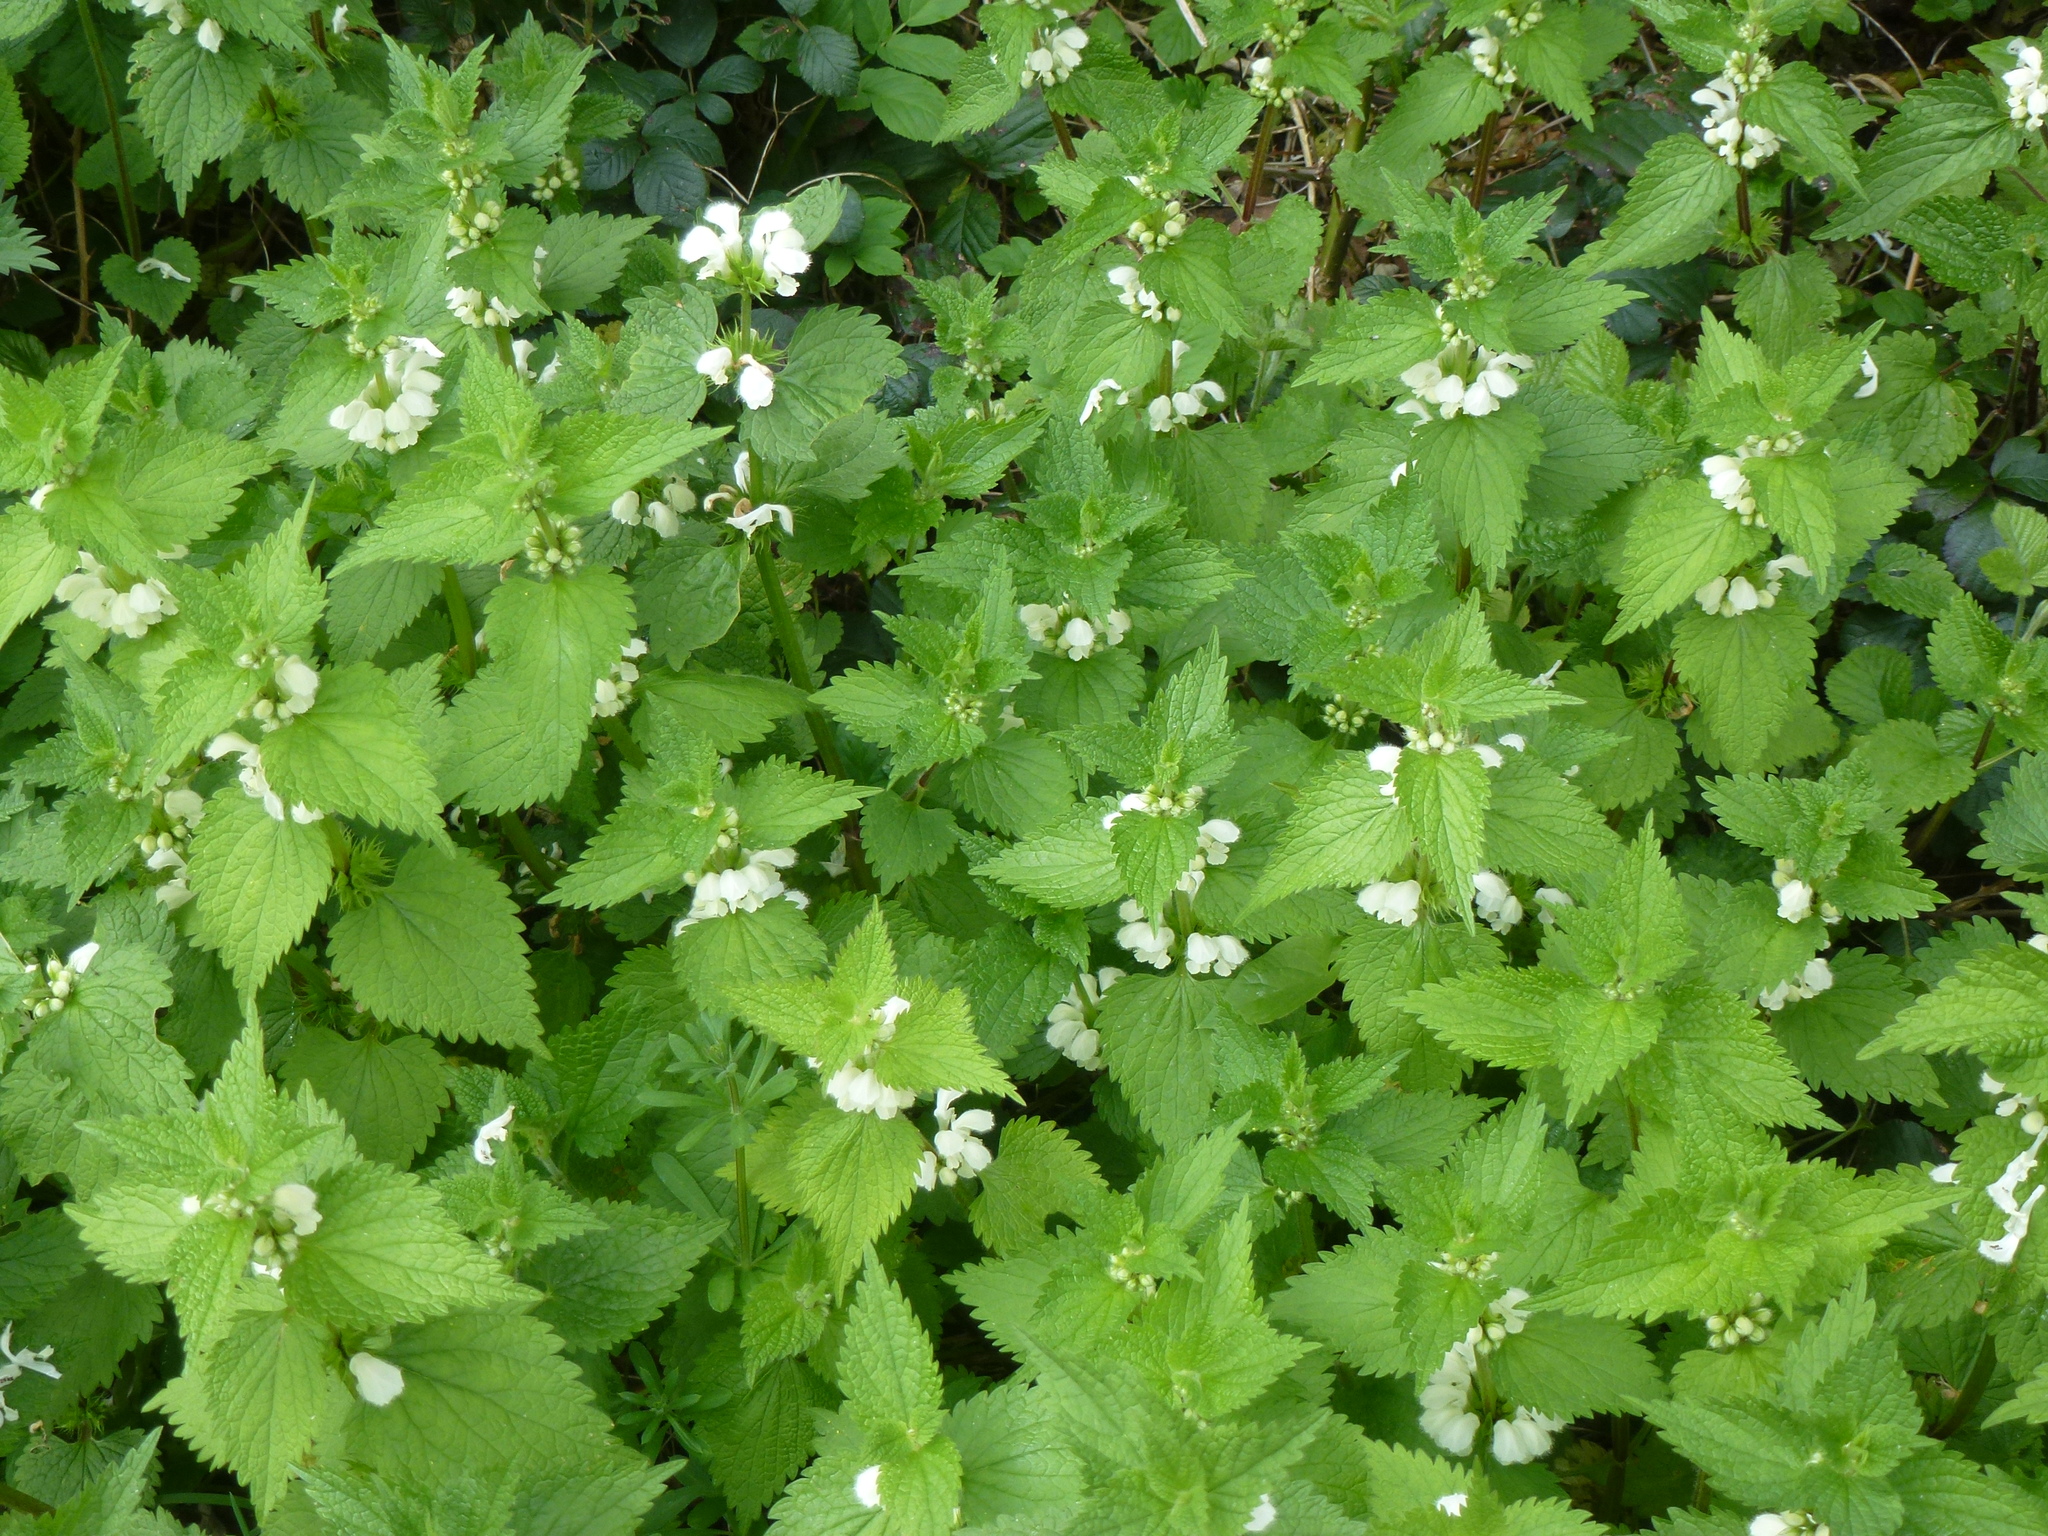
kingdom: Plantae
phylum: Tracheophyta
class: Magnoliopsida
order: Lamiales
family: Lamiaceae
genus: Lamium
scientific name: Lamium album
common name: White dead-nettle
